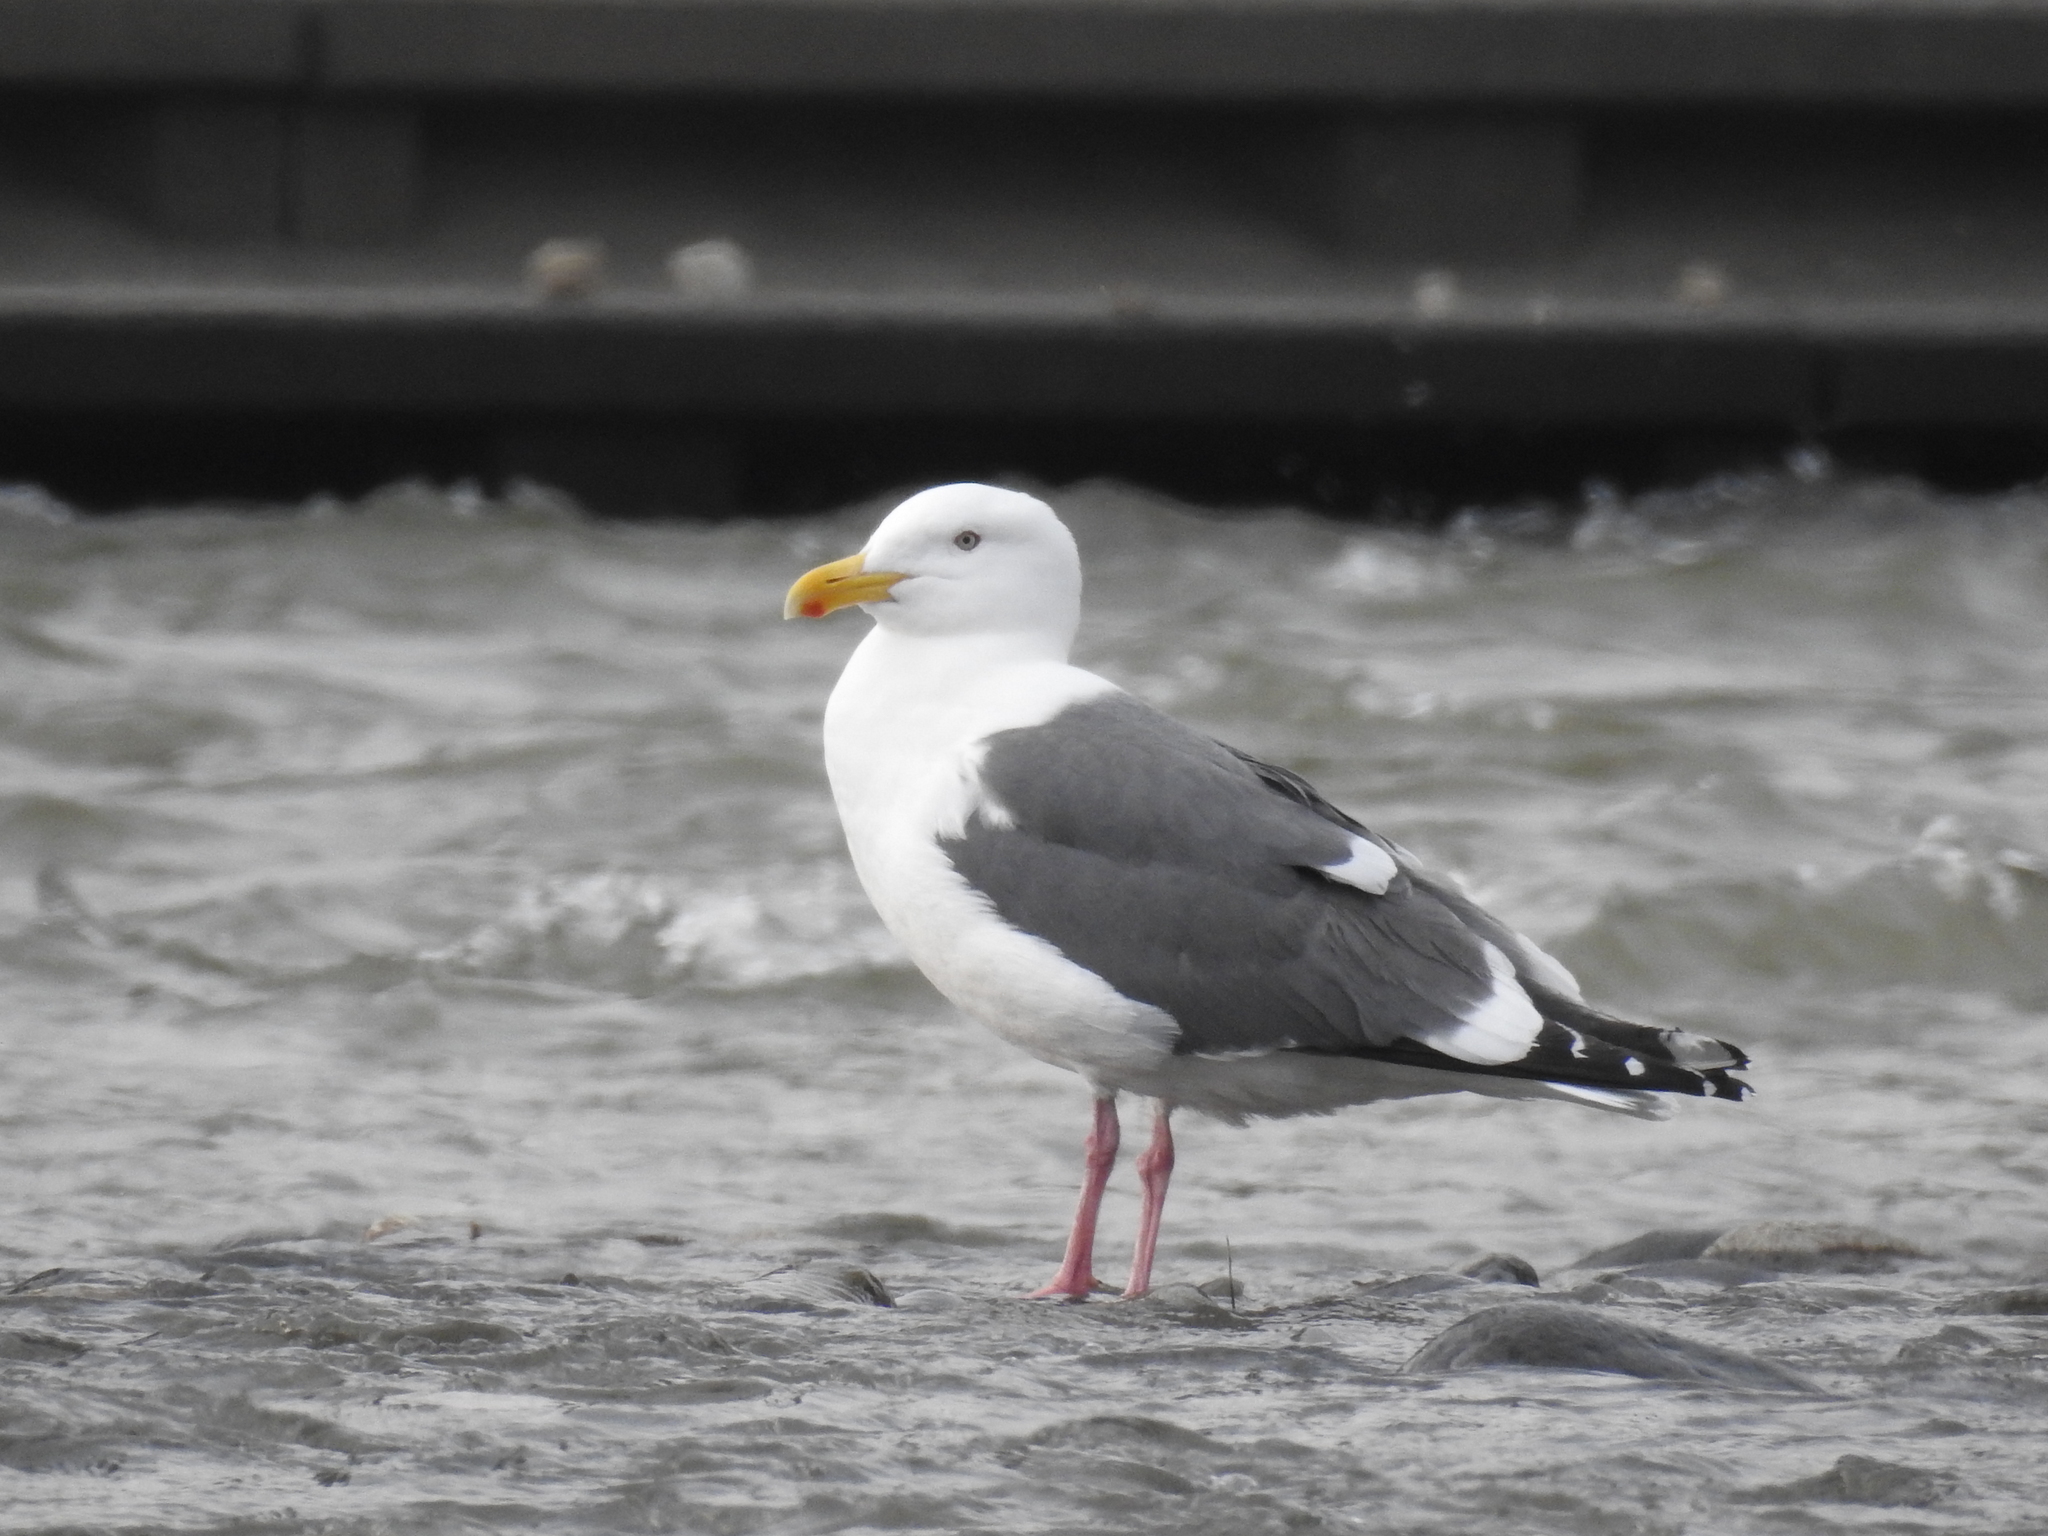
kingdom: Animalia
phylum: Chordata
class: Aves
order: Charadriiformes
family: Laridae
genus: Larus
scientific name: Larus schistisagus
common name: Slaty-backed gull
